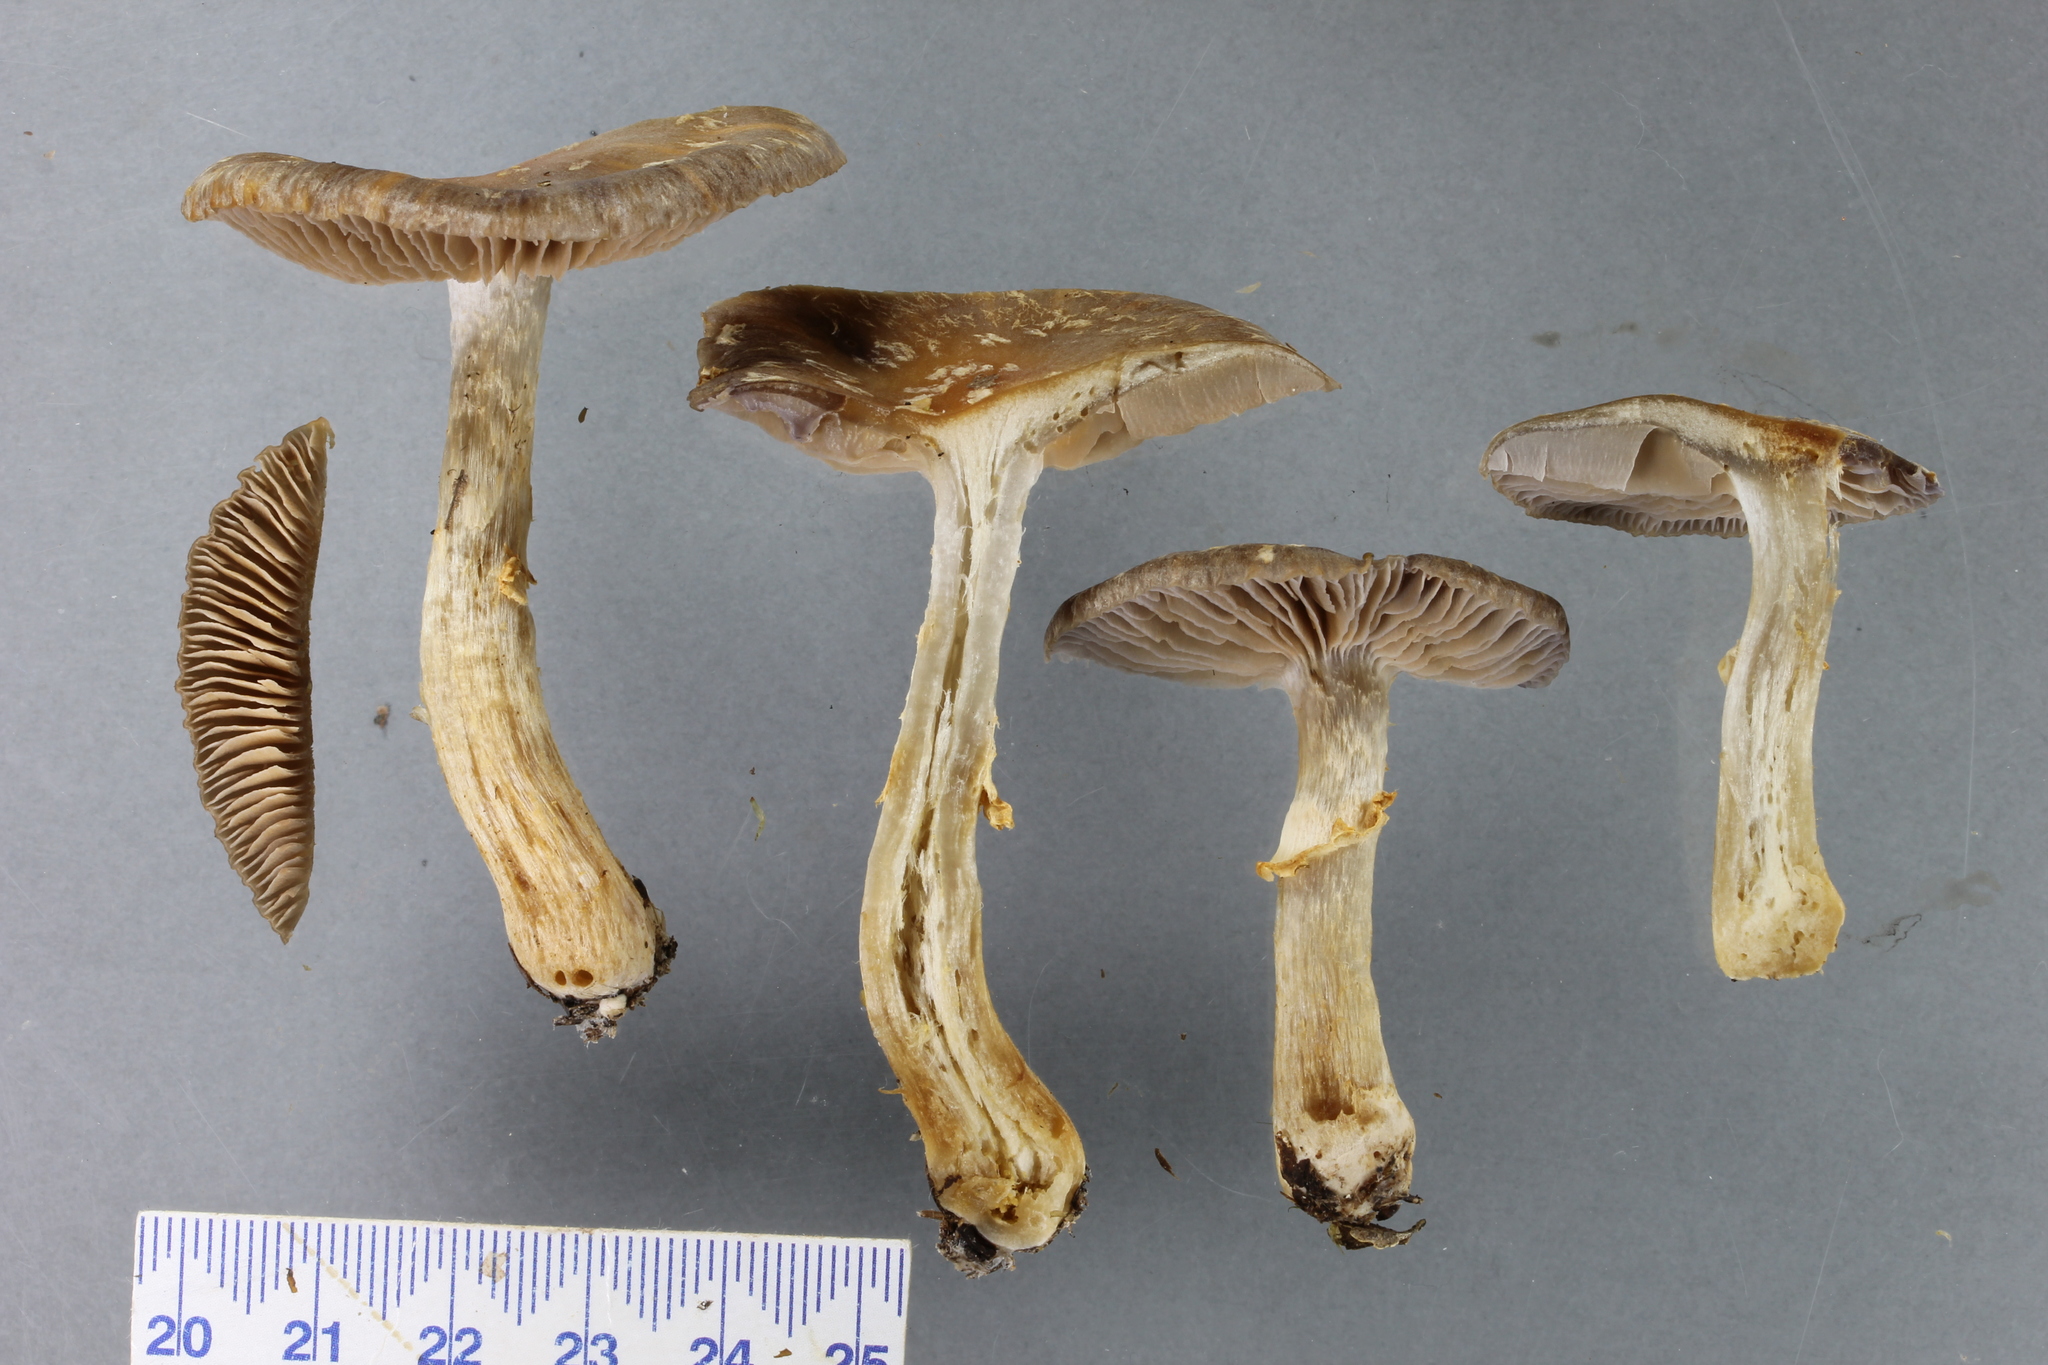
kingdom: Fungi
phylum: Basidiomycota
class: Agaricomycetes
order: Agaricales
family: Cortinariaceae
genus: Cortinarius
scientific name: Cortinarius meleagris
